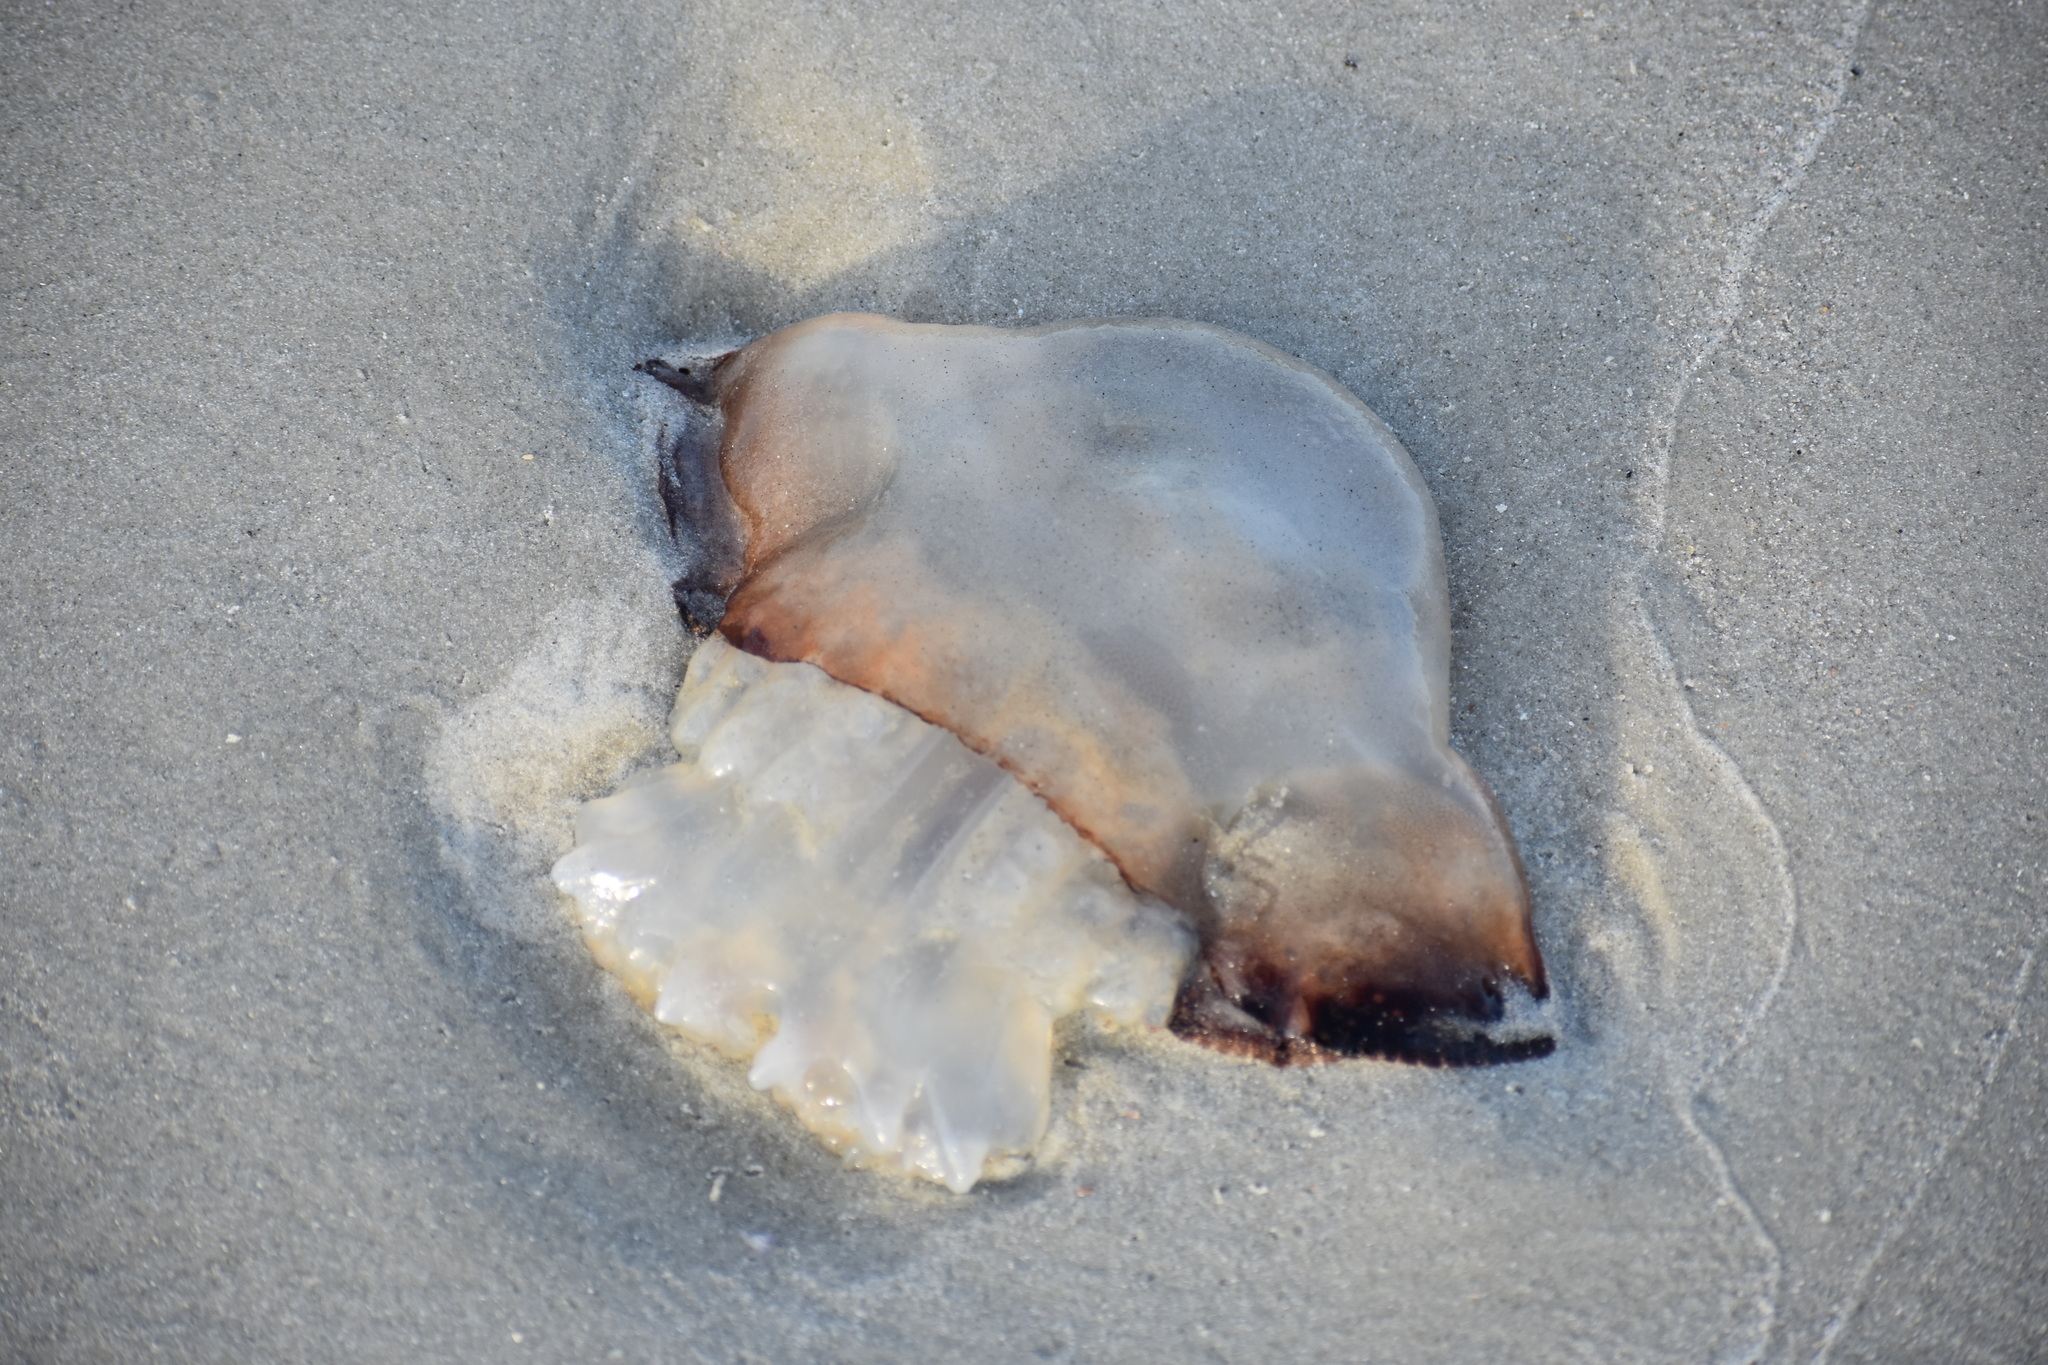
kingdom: Animalia
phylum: Cnidaria
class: Scyphozoa
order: Rhizostomeae
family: Stomolophidae
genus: Stomolophus
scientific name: Stomolophus meleagris
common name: Cabbagehead
